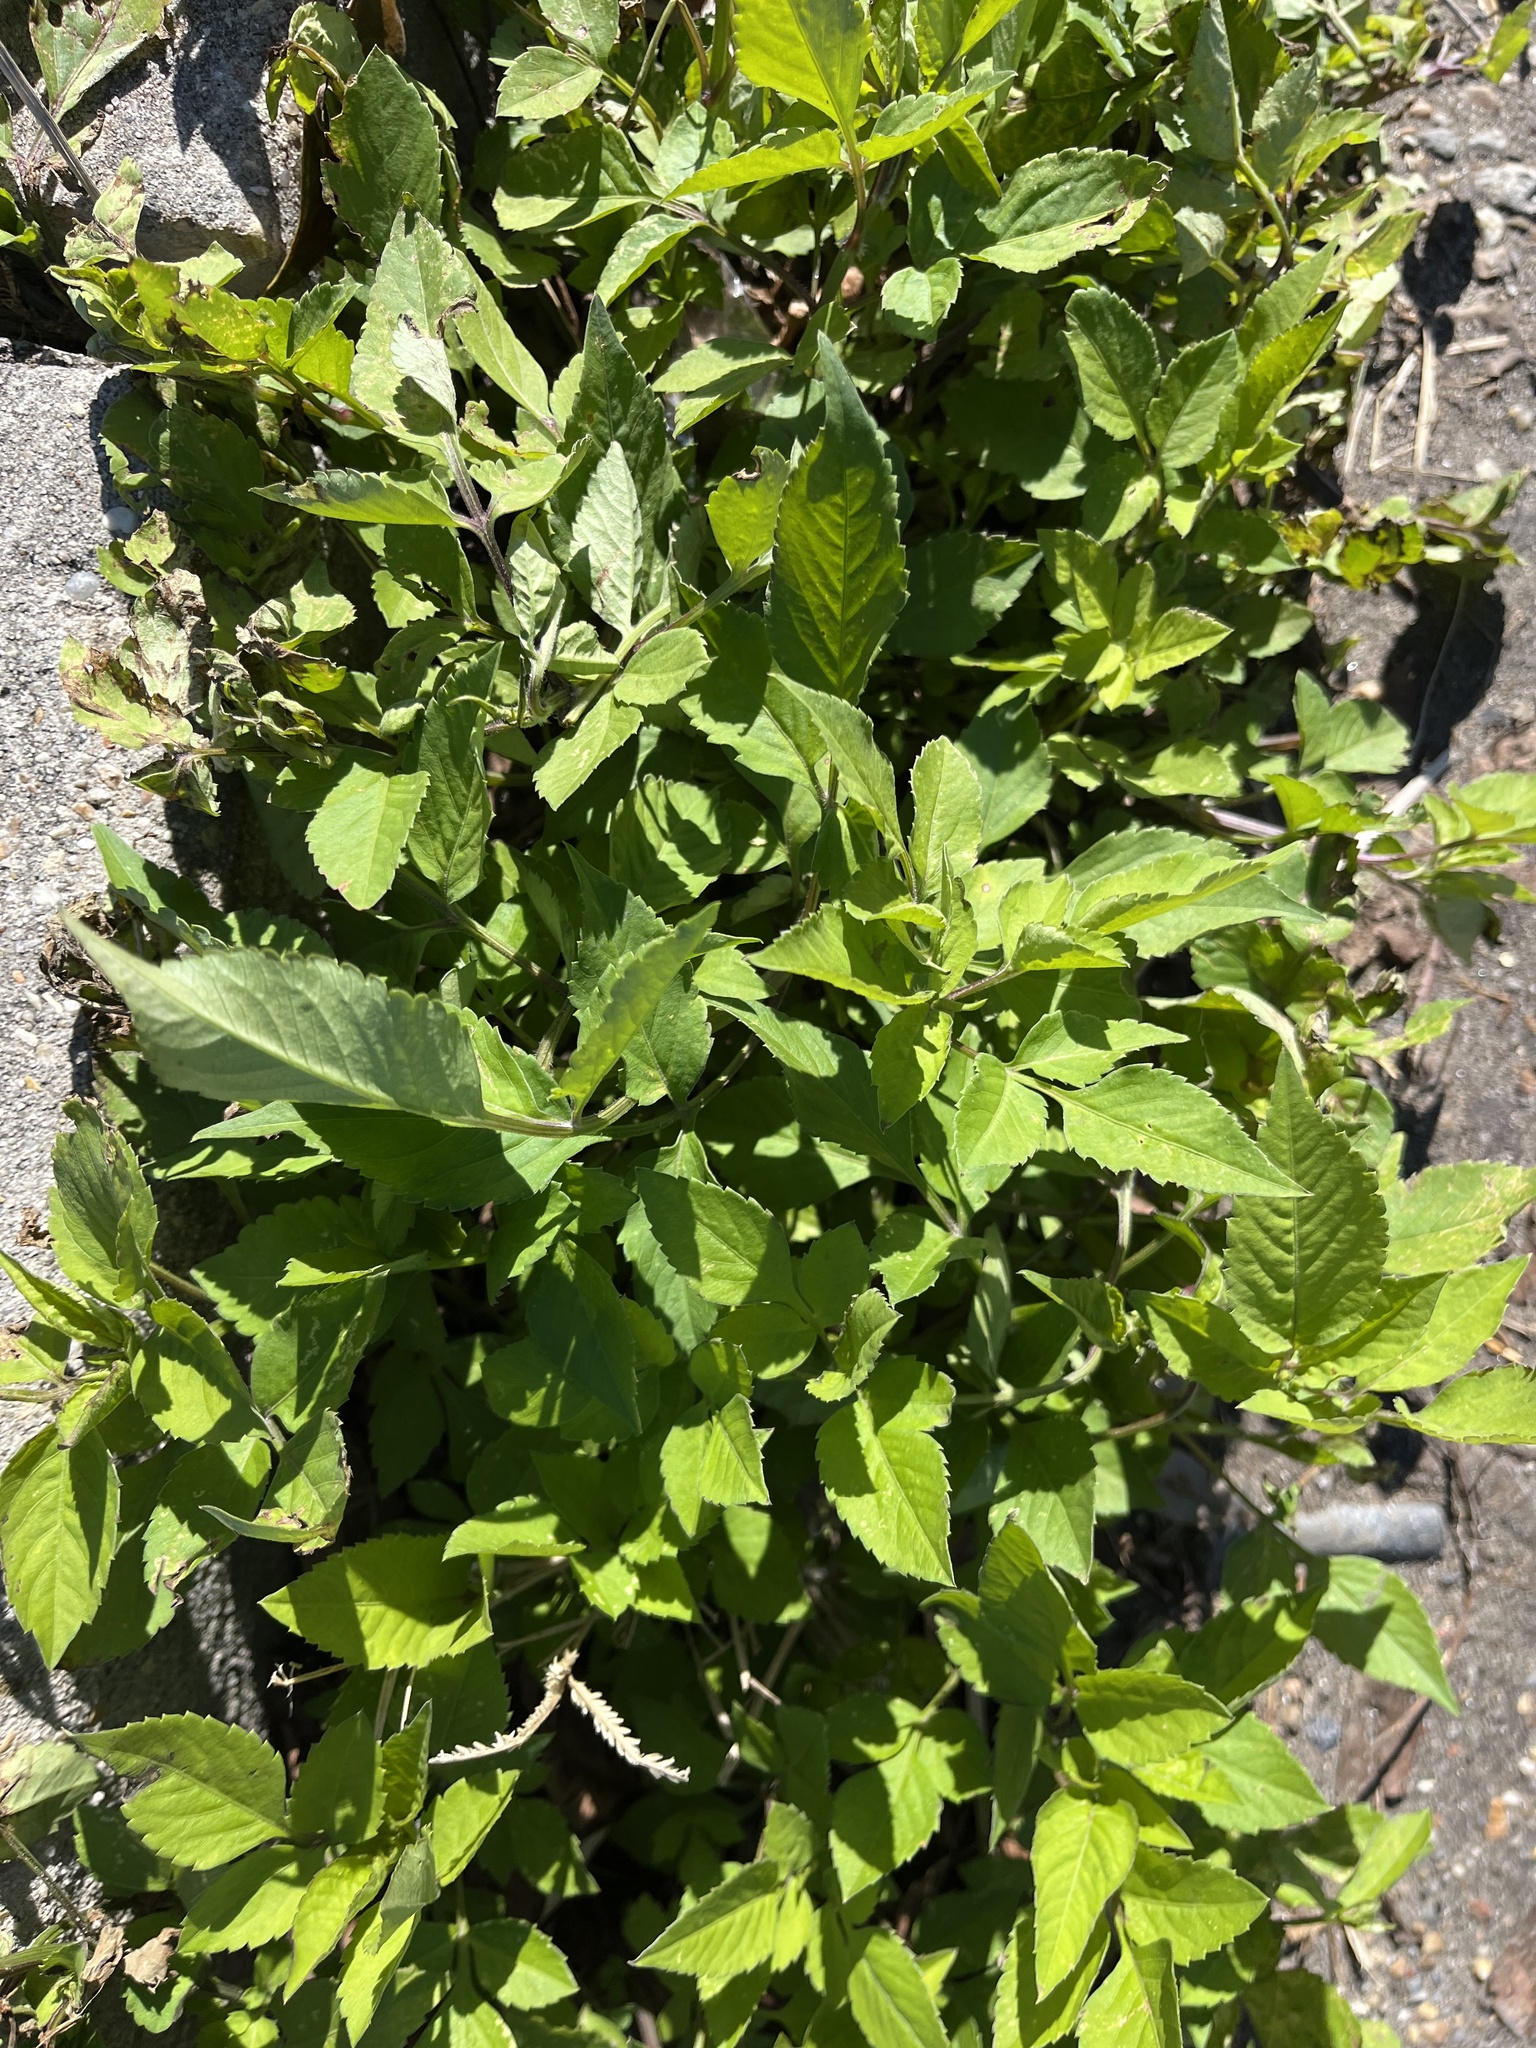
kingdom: Plantae
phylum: Tracheophyta
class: Magnoliopsida
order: Asterales
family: Asteraceae
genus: Bidens
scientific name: Bidens alba
